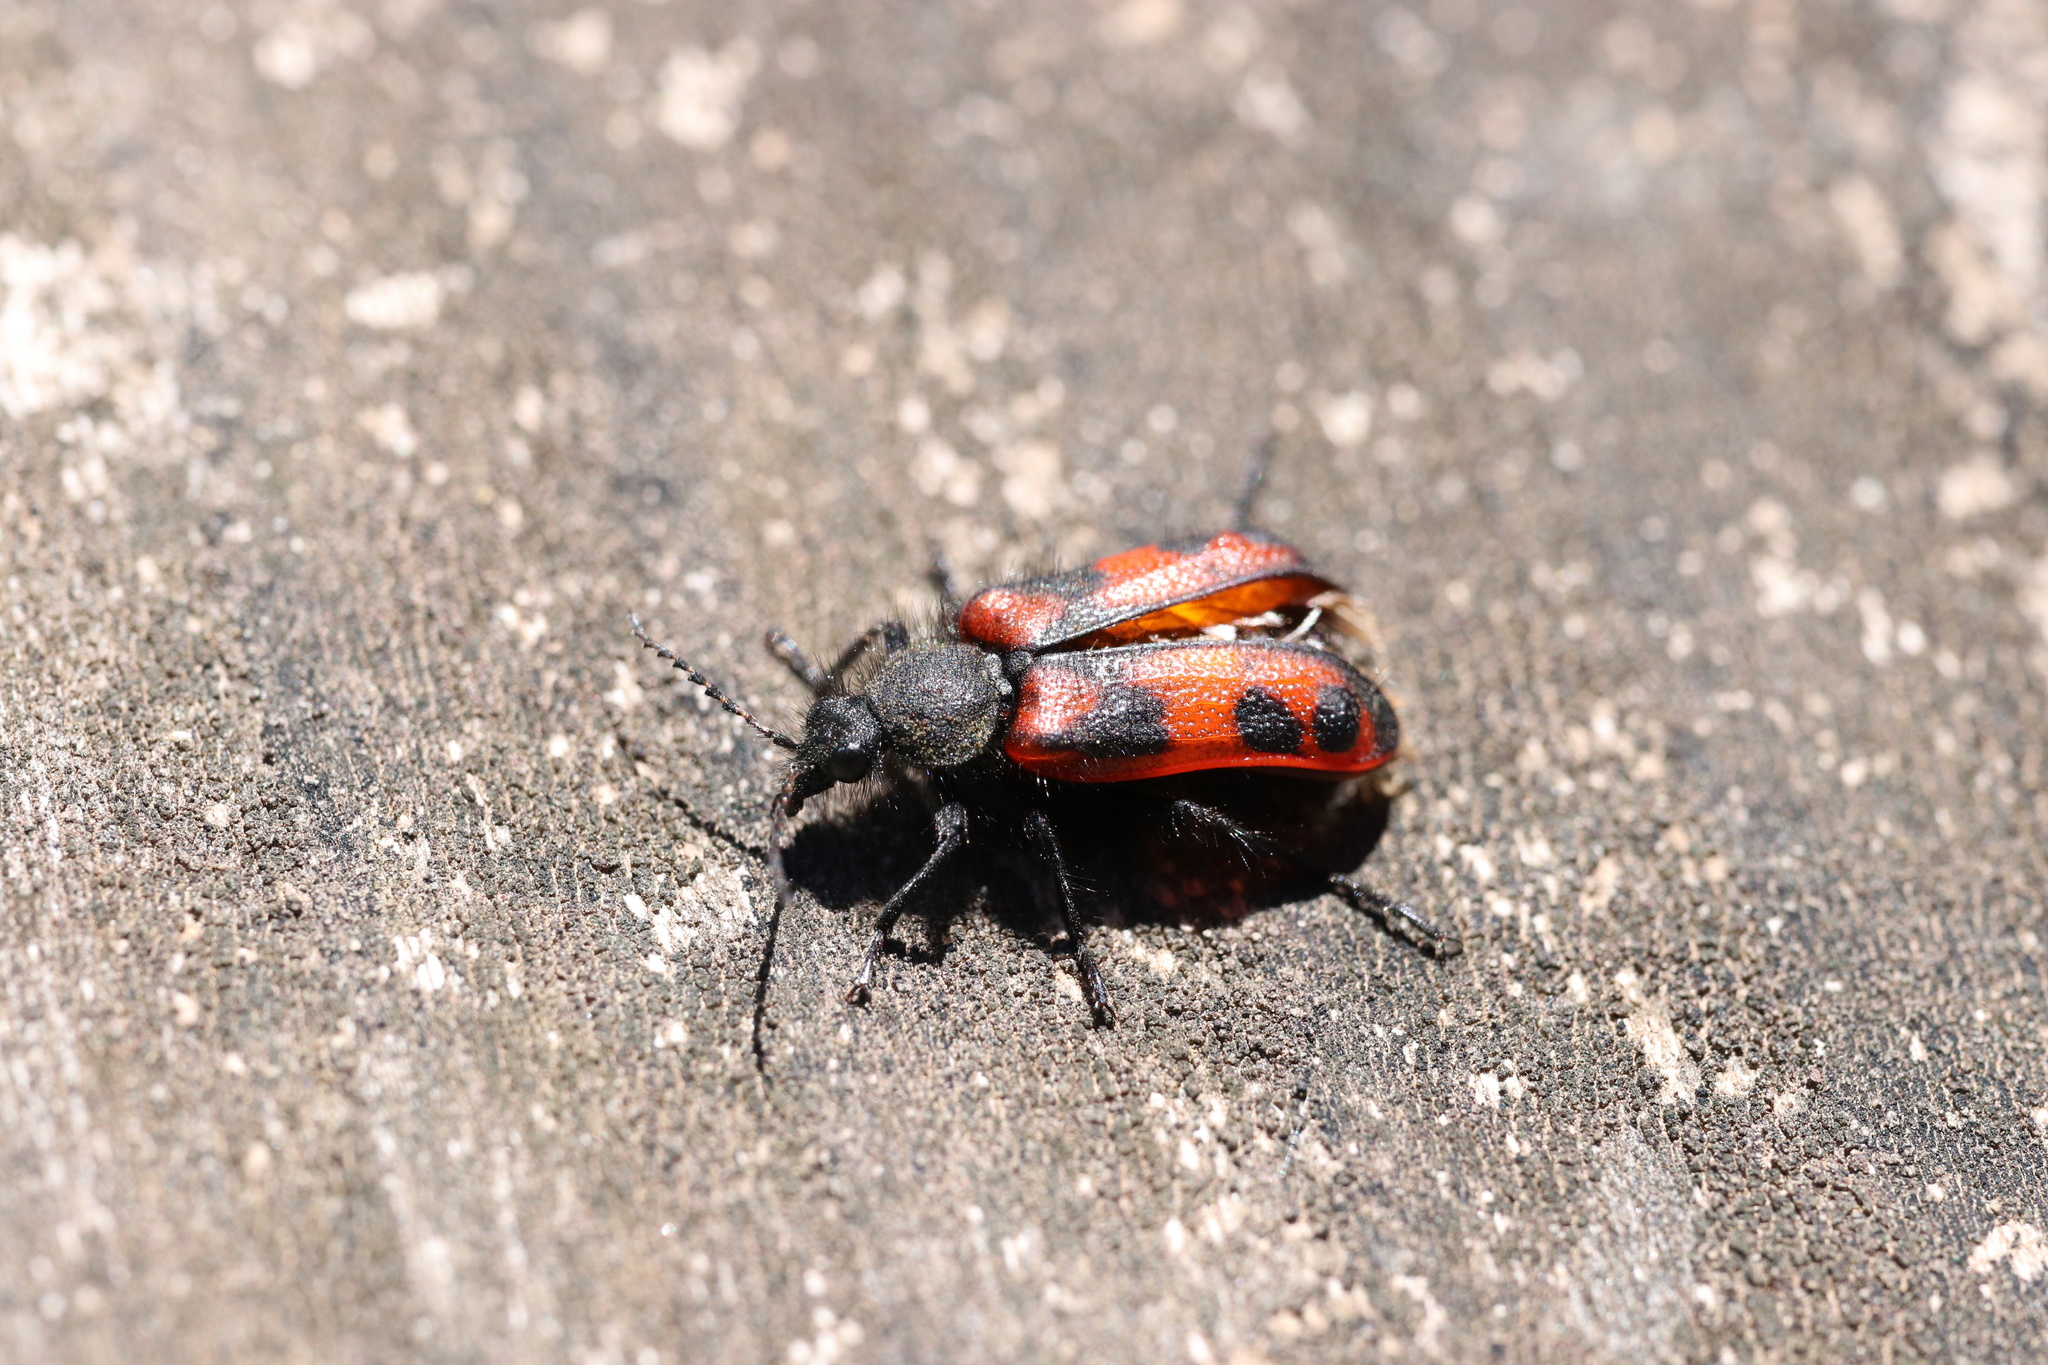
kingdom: Animalia
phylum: Arthropoda
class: Insecta
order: Coleoptera
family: Melyridae
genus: Astylus
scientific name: Astylus
